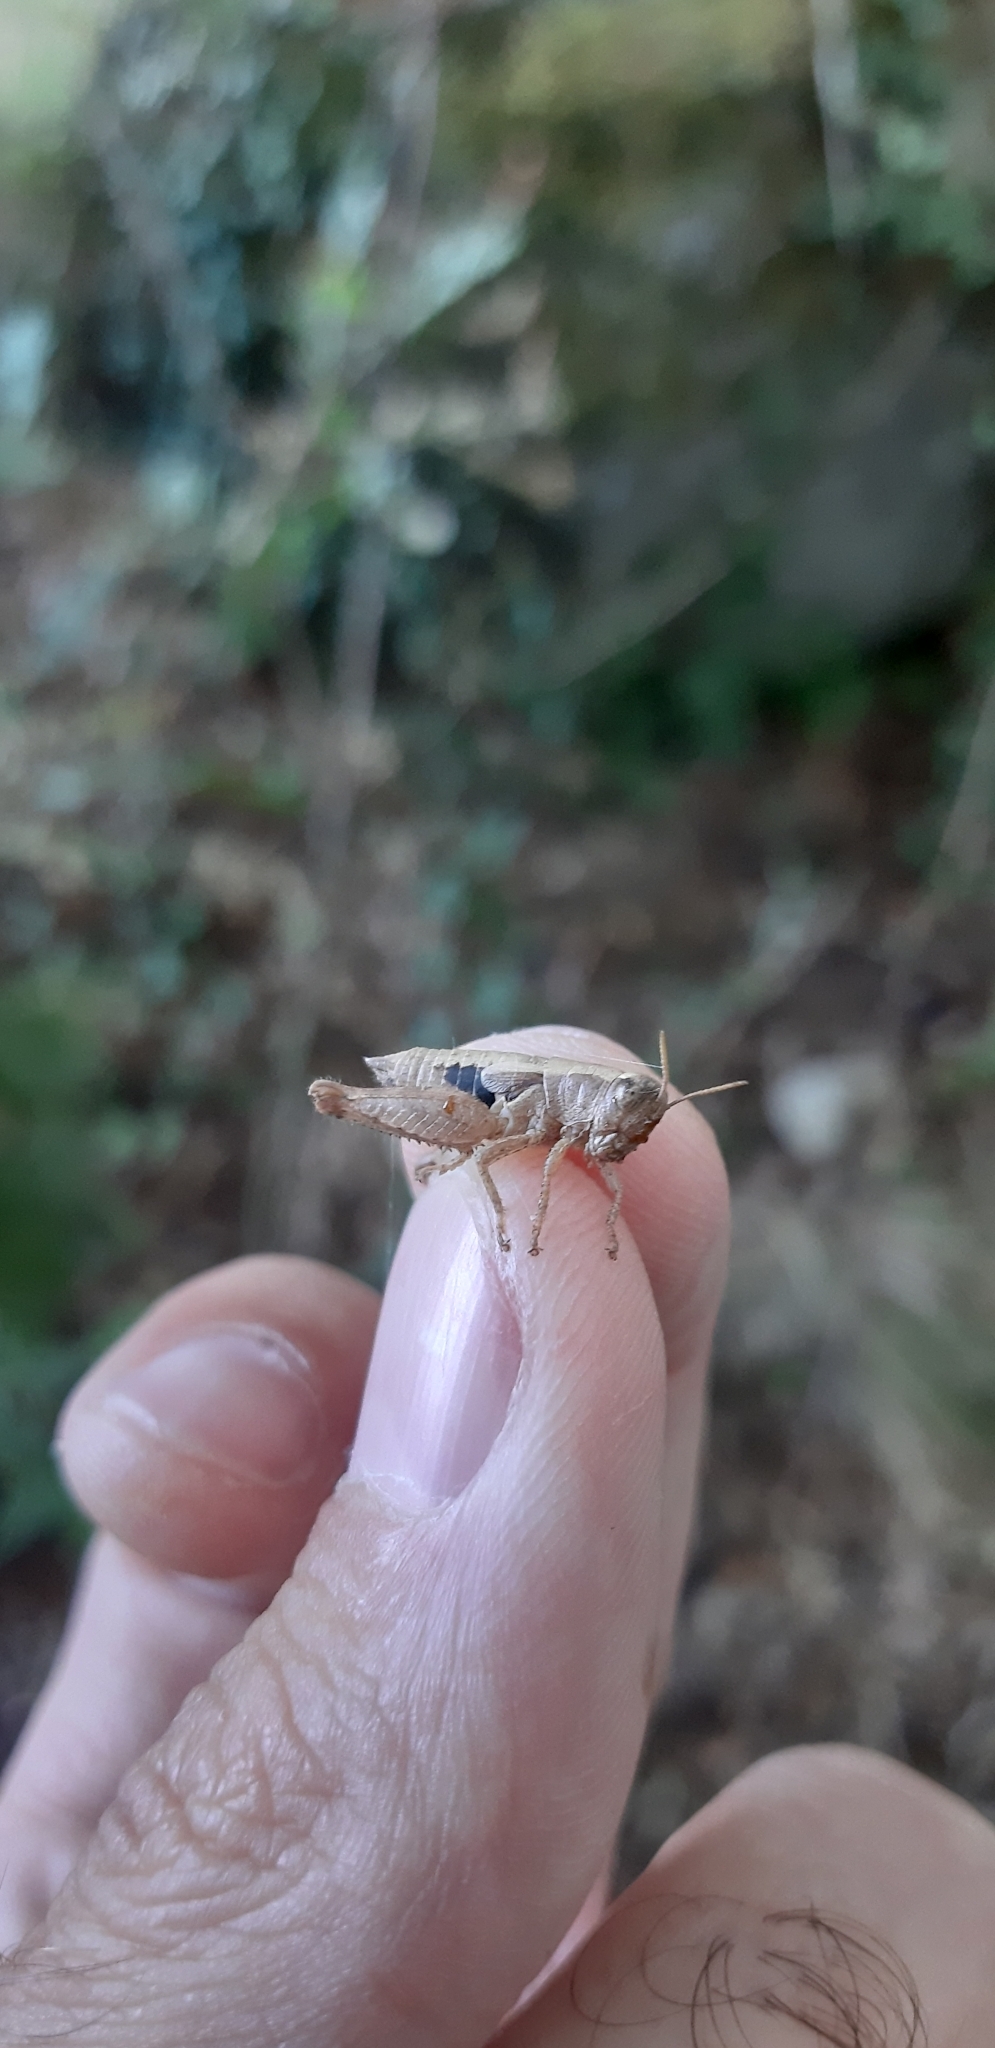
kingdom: Animalia
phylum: Arthropoda
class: Insecta
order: Orthoptera
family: Acrididae
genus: Pezotettix
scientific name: Pezotettix giornae
